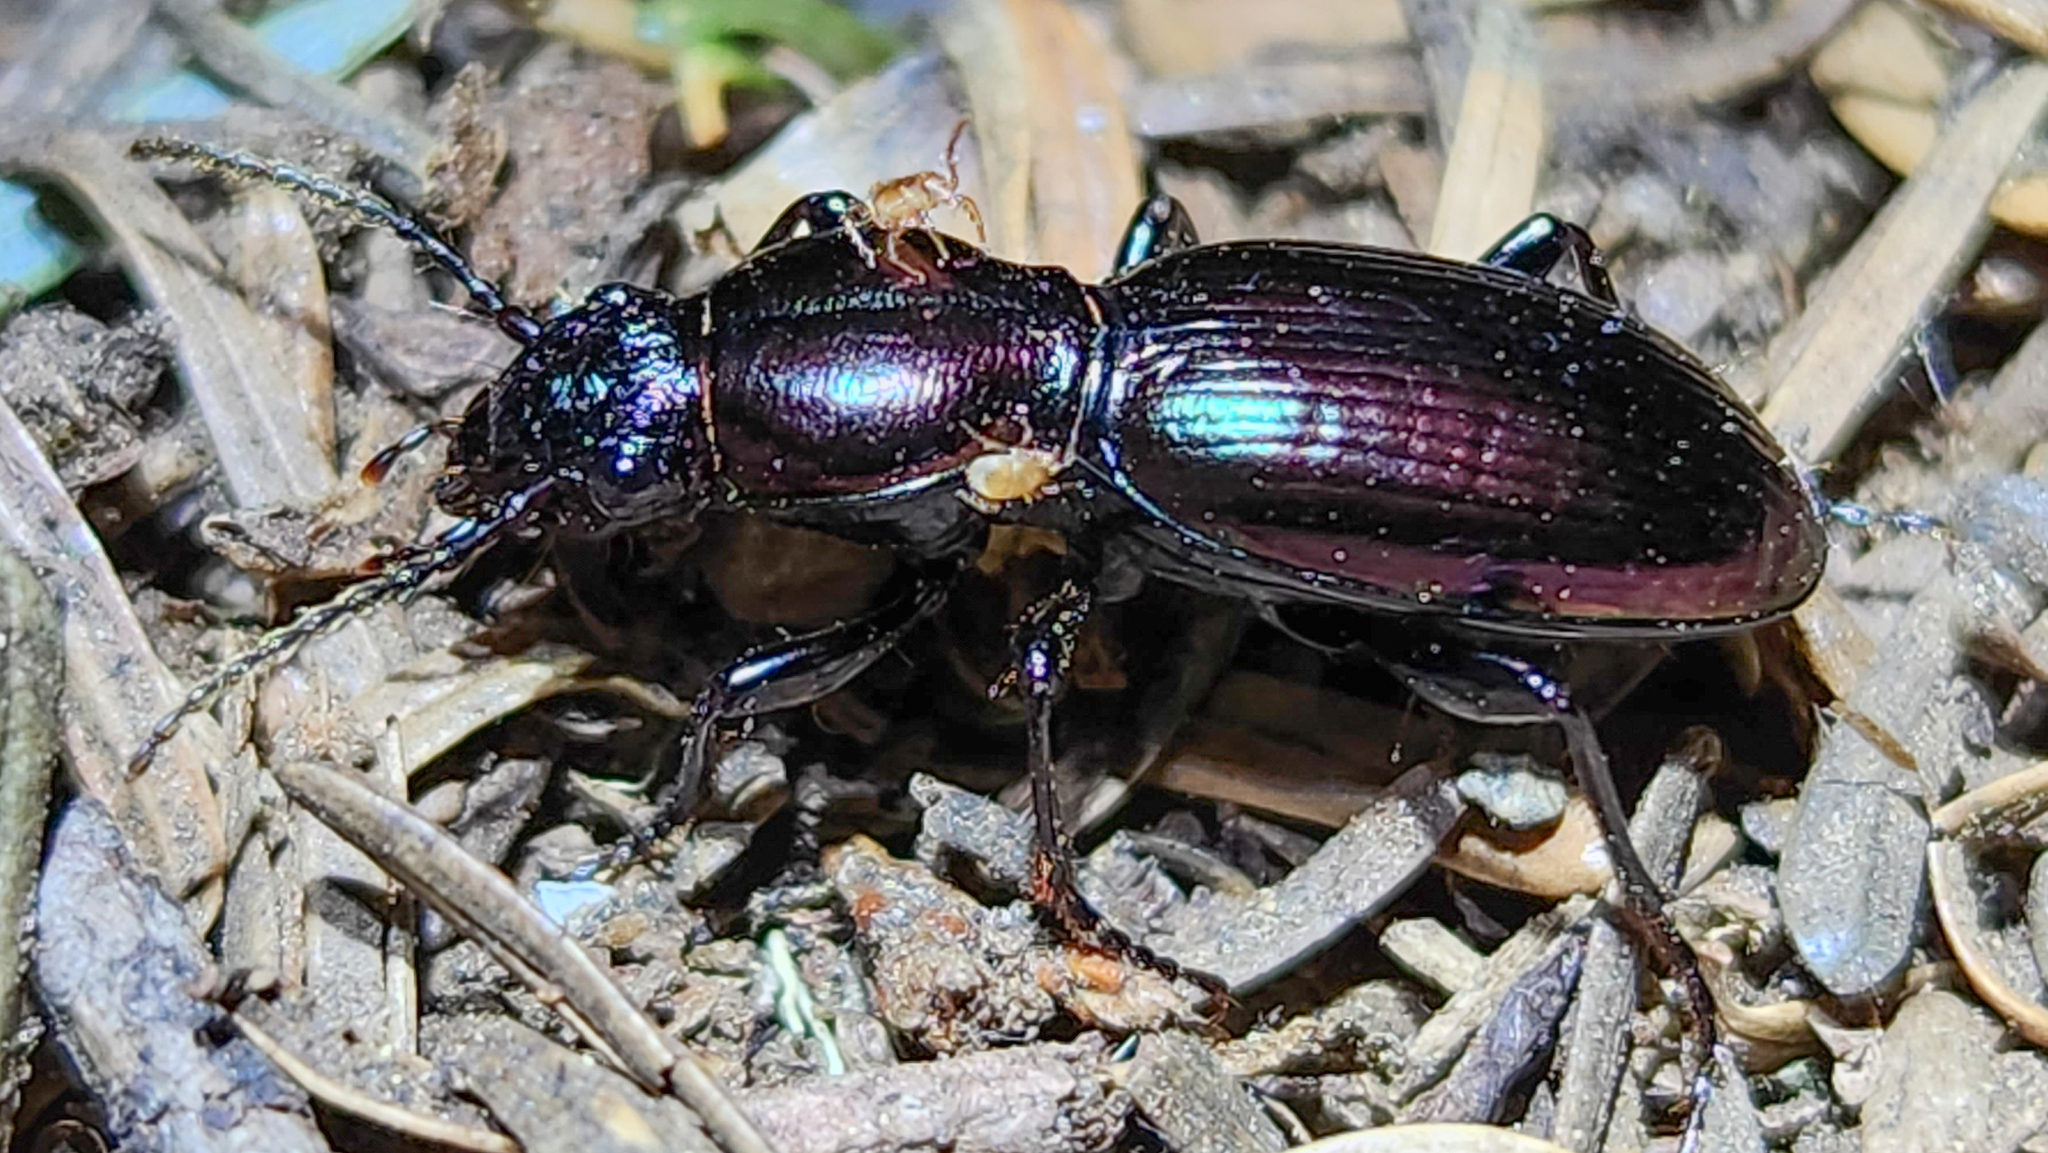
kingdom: Animalia
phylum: Arthropoda
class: Insecta
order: Coleoptera
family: Carabidae
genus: Zacotus
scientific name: Zacotus matthewsii
